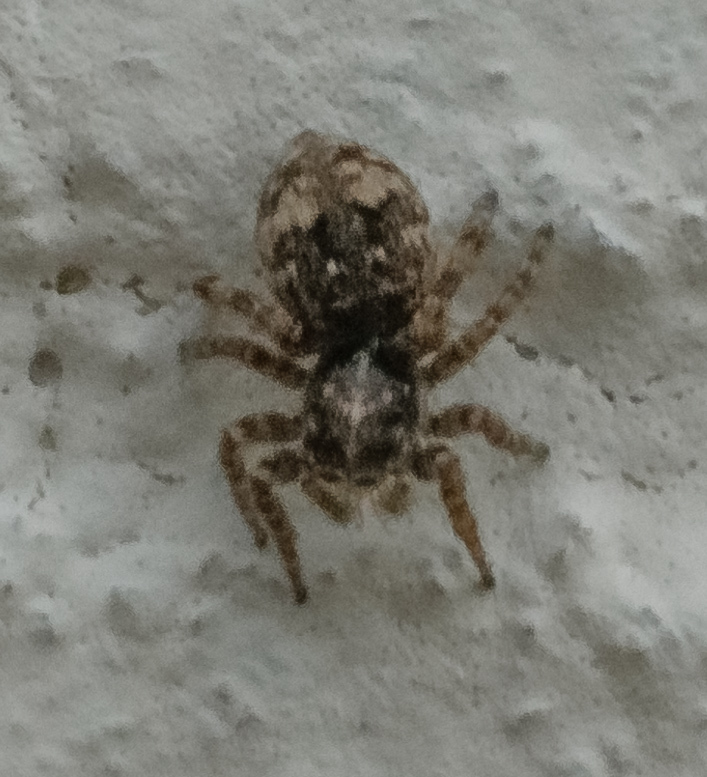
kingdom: Animalia
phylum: Arthropoda
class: Arachnida
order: Araneae
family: Salticidae
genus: Attulus
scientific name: Attulus fasciger
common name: Asiatic wall jumping spider
